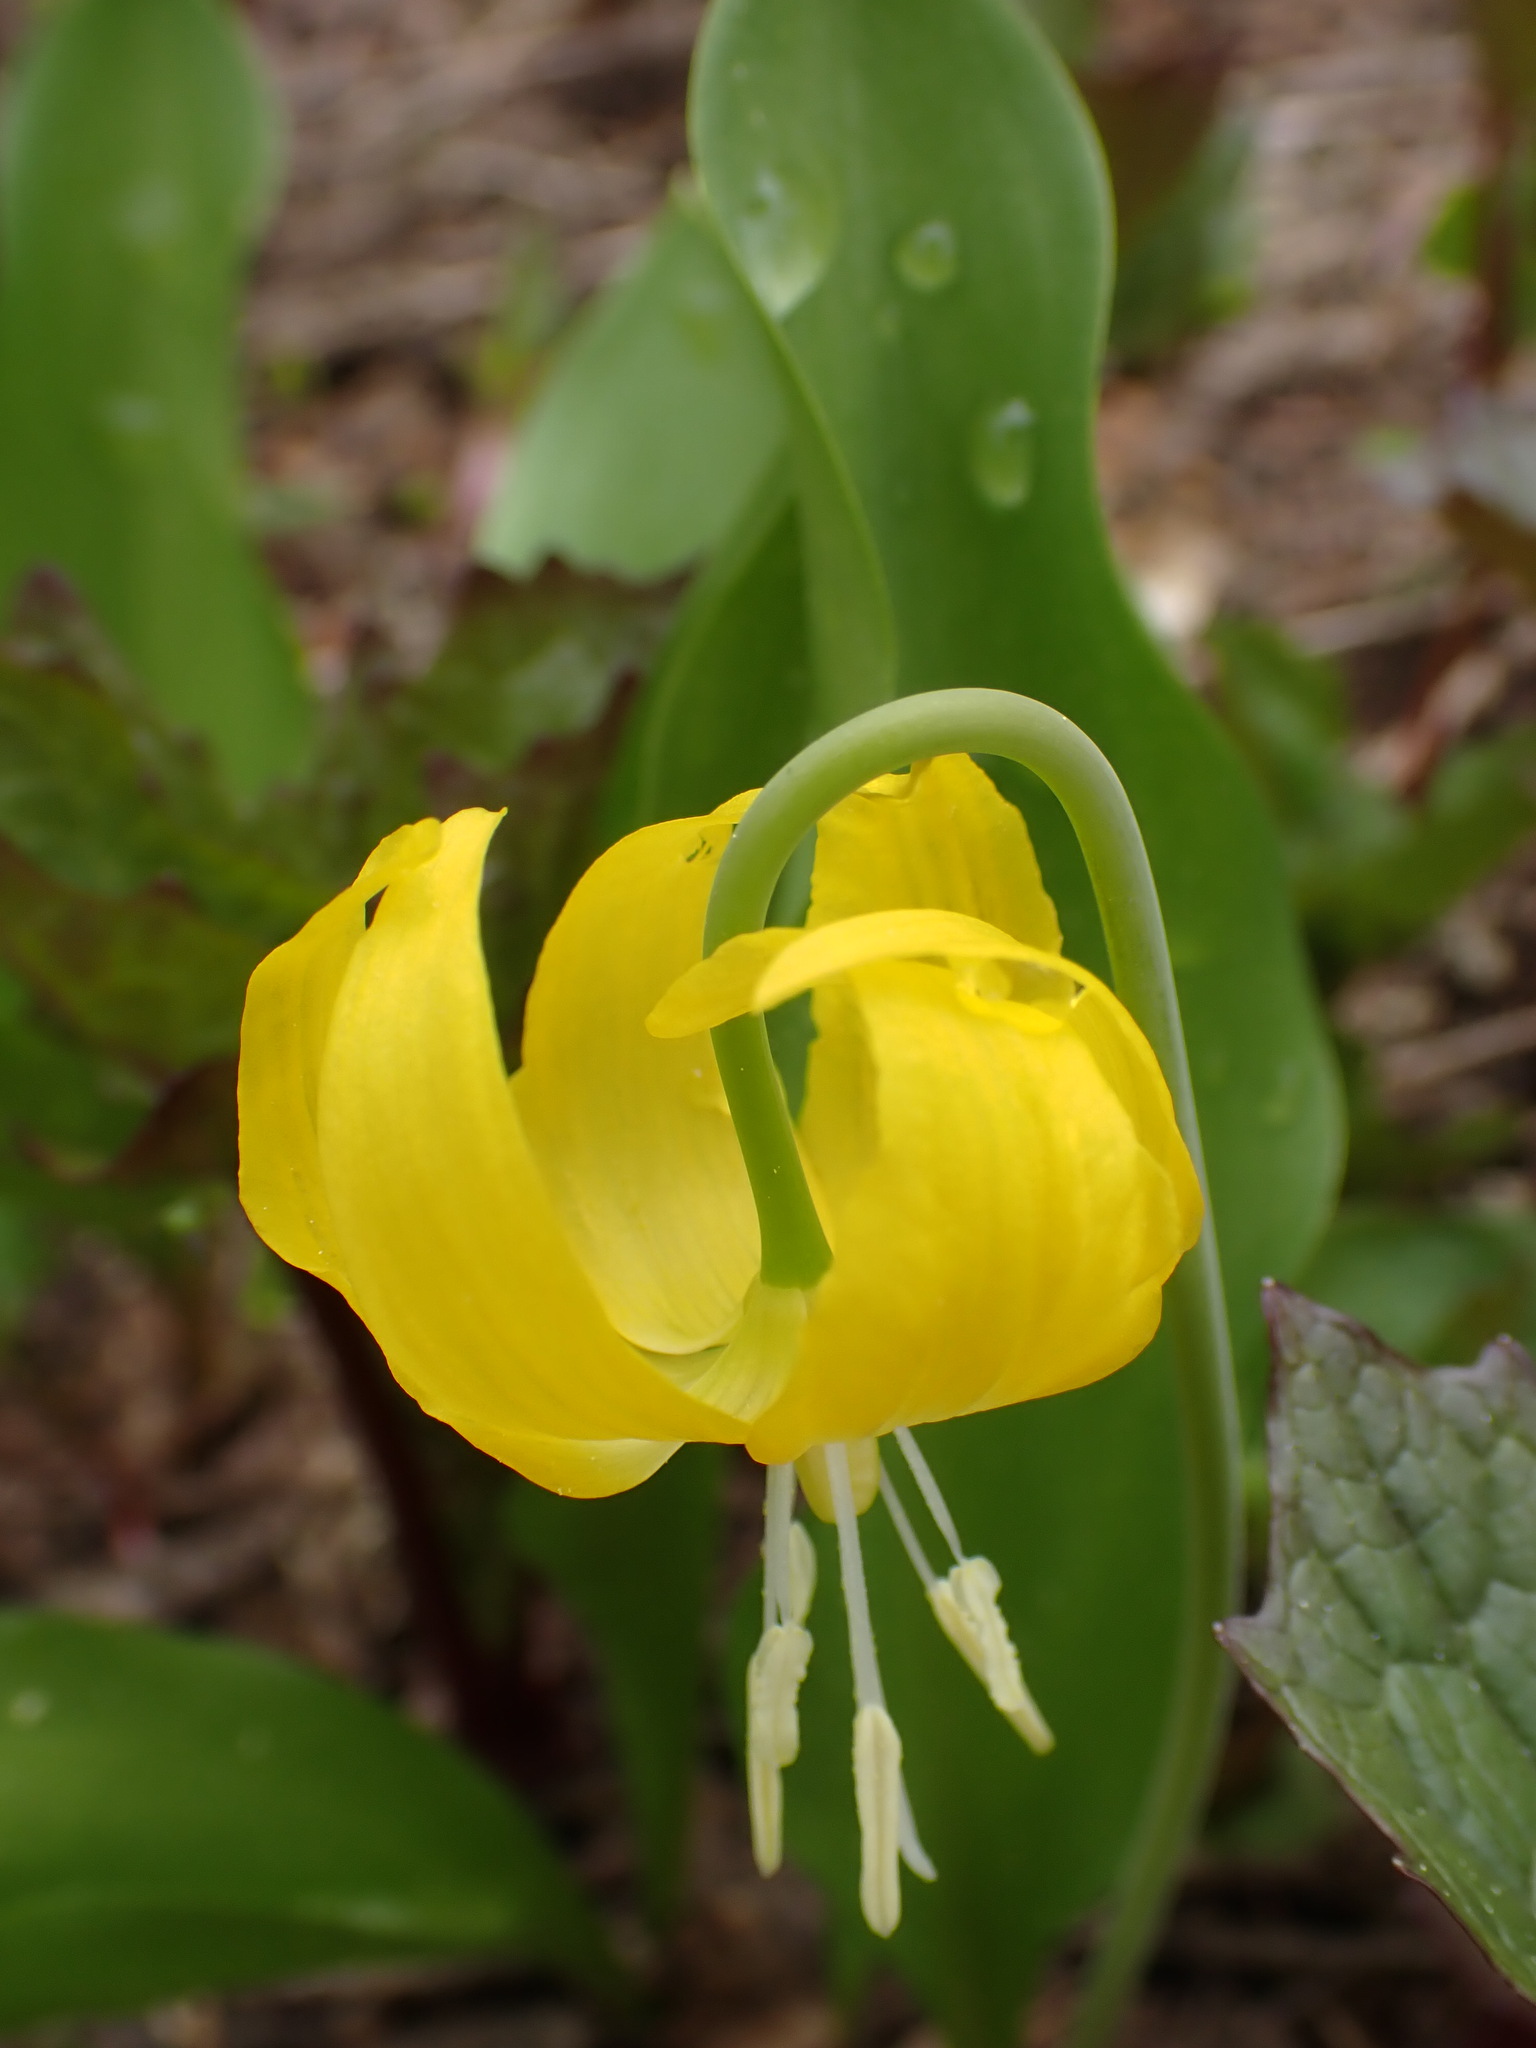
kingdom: Plantae
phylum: Tracheophyta
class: Liliopsida
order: Liliales
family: Liliaceae
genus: Erythronium
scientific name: Erythronium grandiflorum
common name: Avalanche-lily
